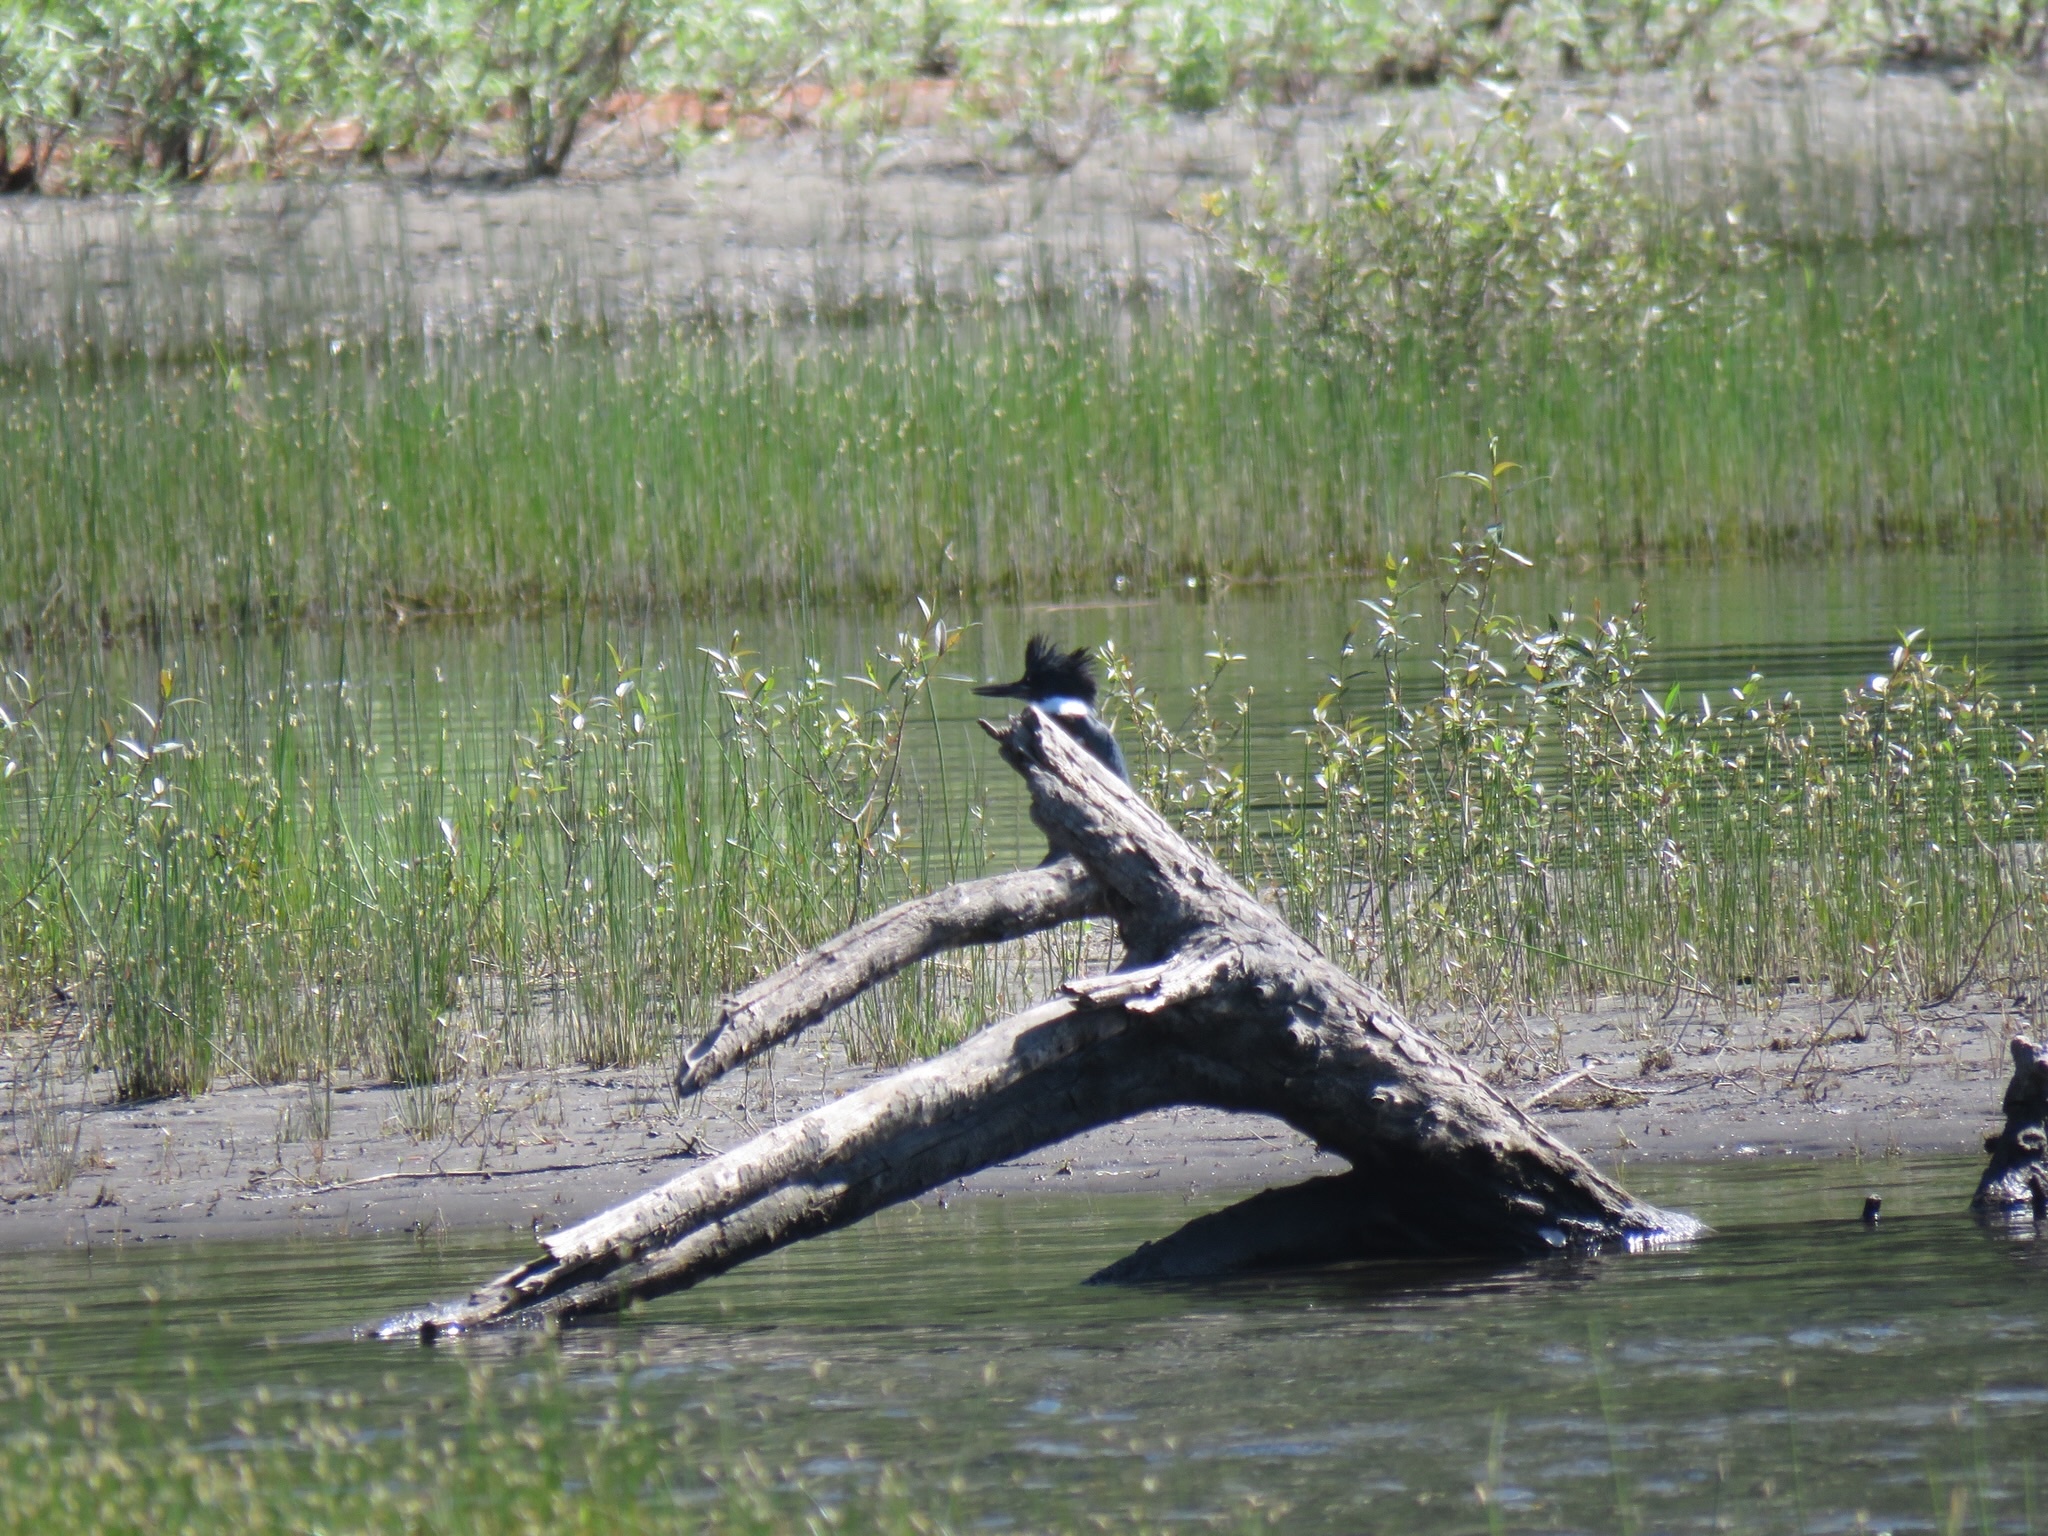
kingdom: Animalia
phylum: Chordata
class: Aves
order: Coraciiformes
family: Alcedinidae
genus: Megaceryle
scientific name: Megaceryle alcyon
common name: Belted kingfisher
